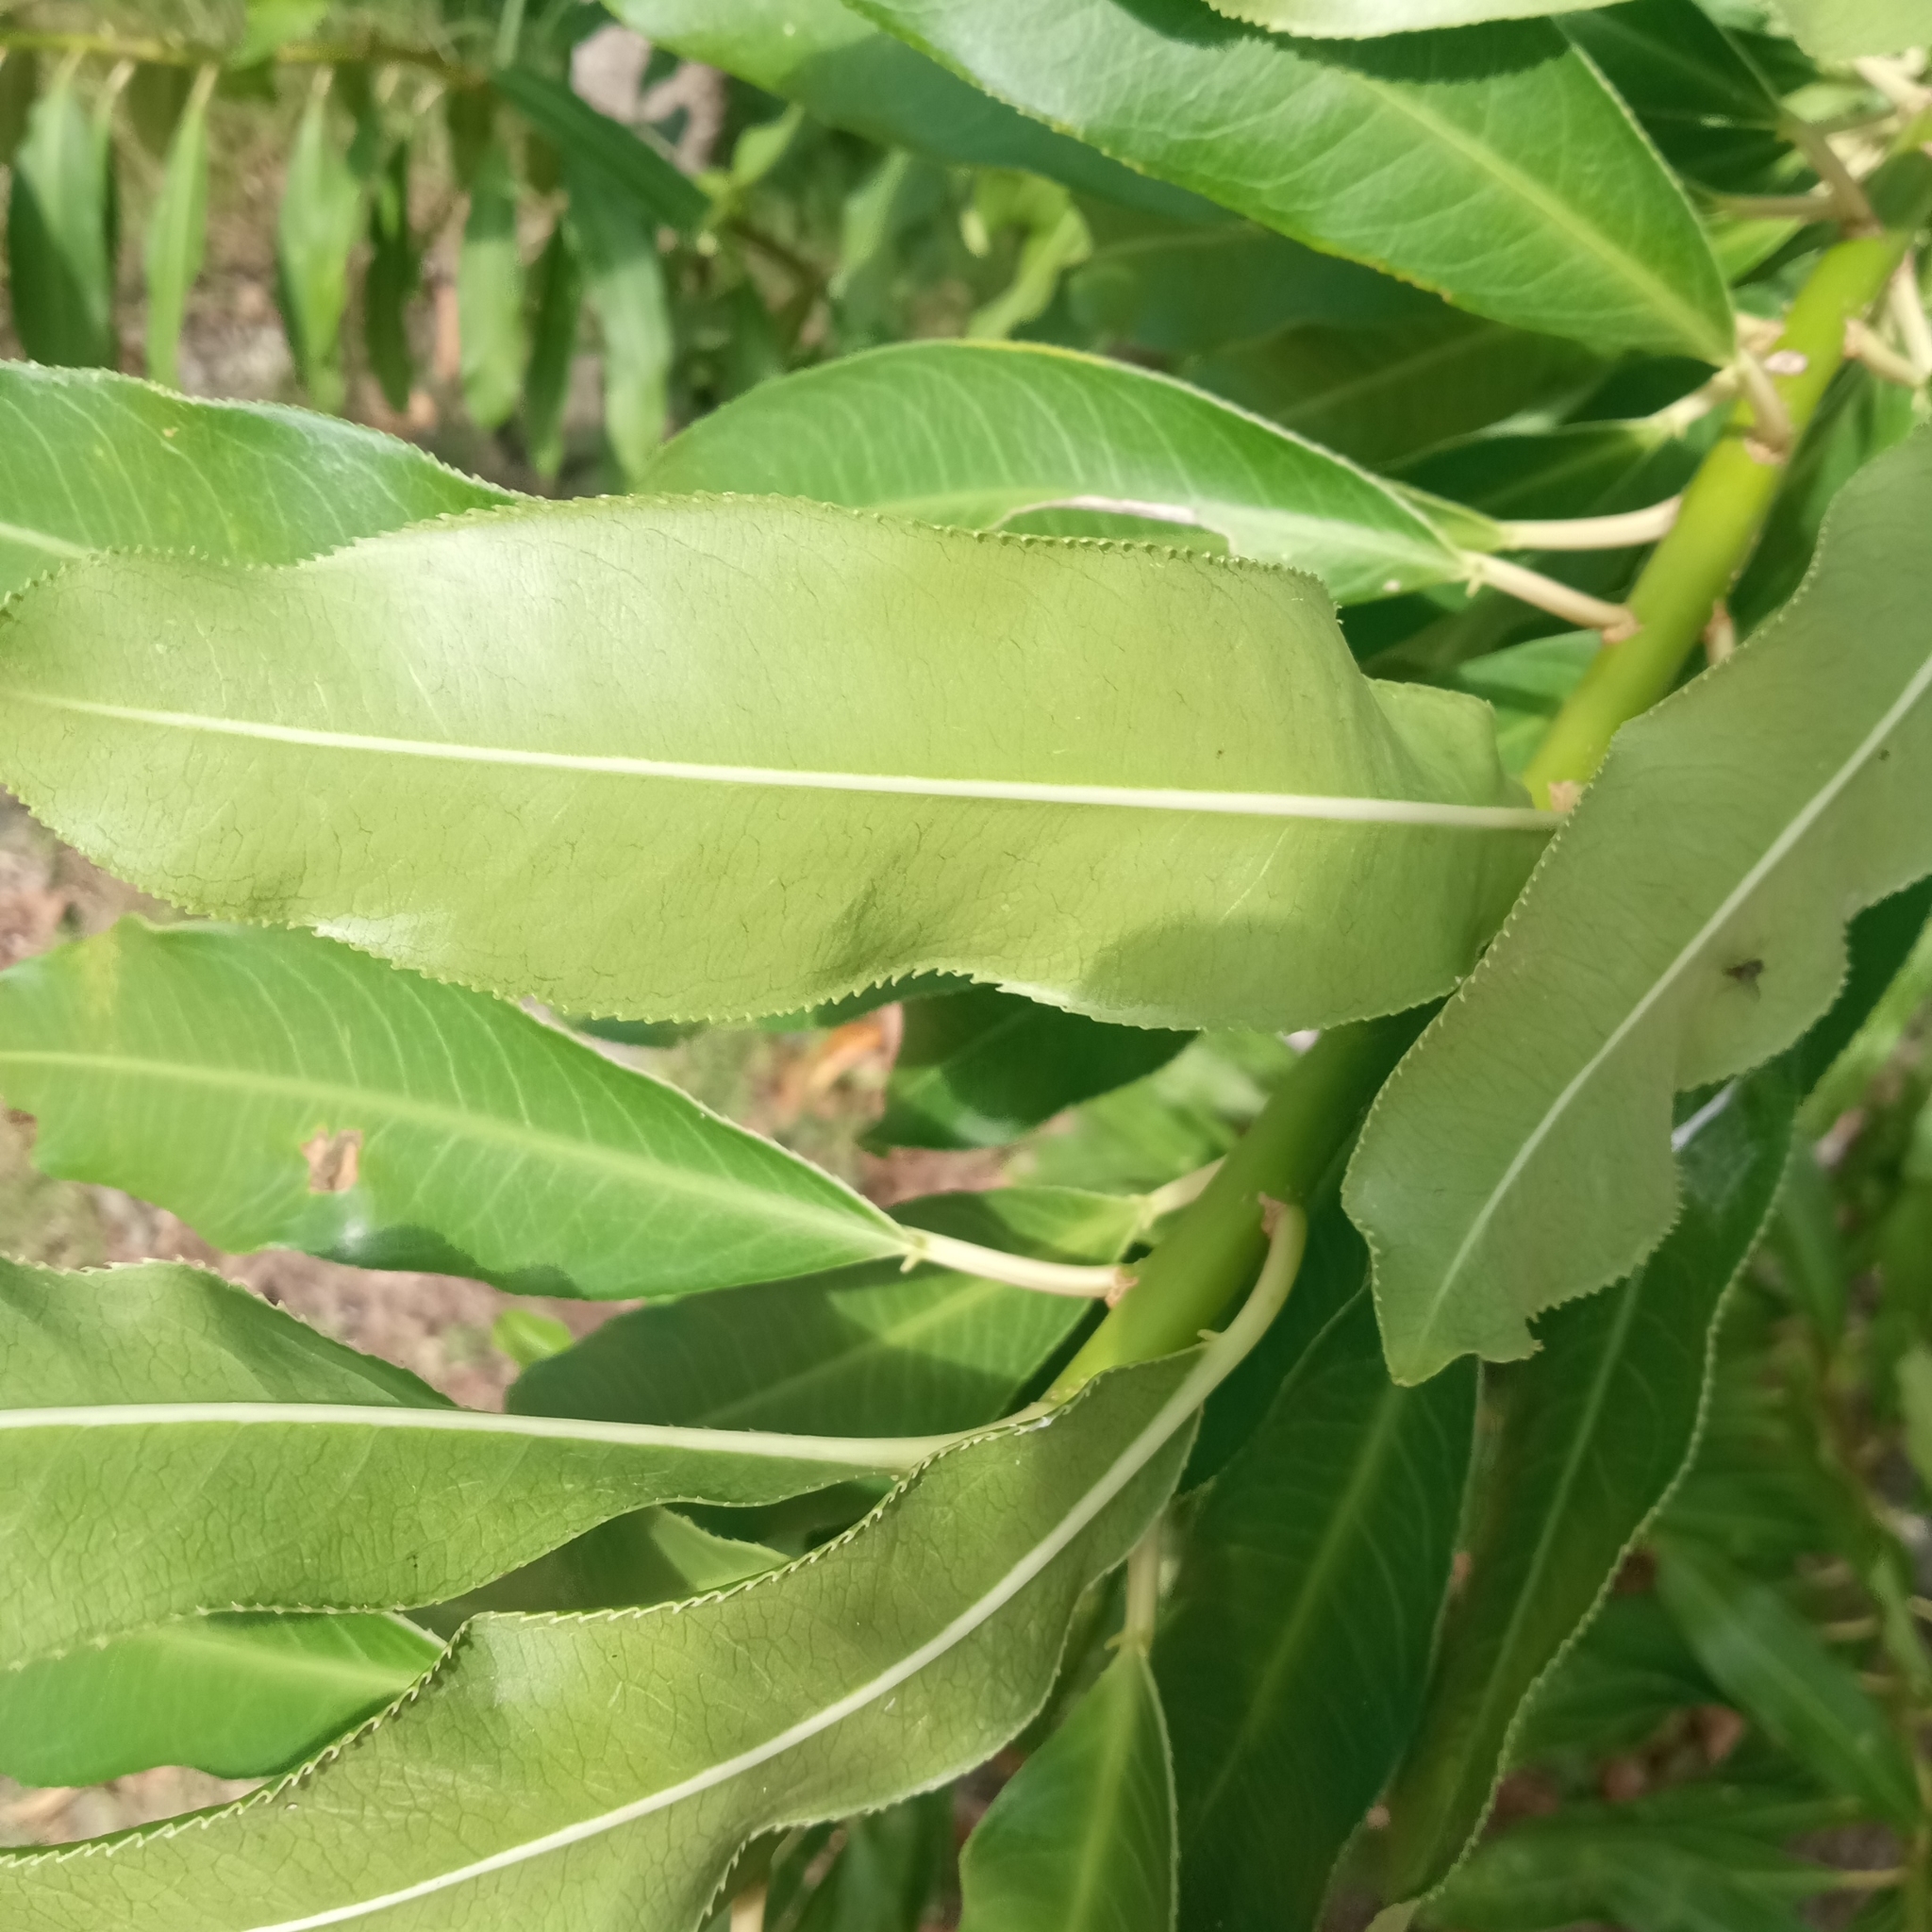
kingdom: Plantae
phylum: Tracheophyta
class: Magnoliopsida
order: Malpighiales
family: Euphorbiaceae
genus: Sapium
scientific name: Sapium glandulosum
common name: Milktree
